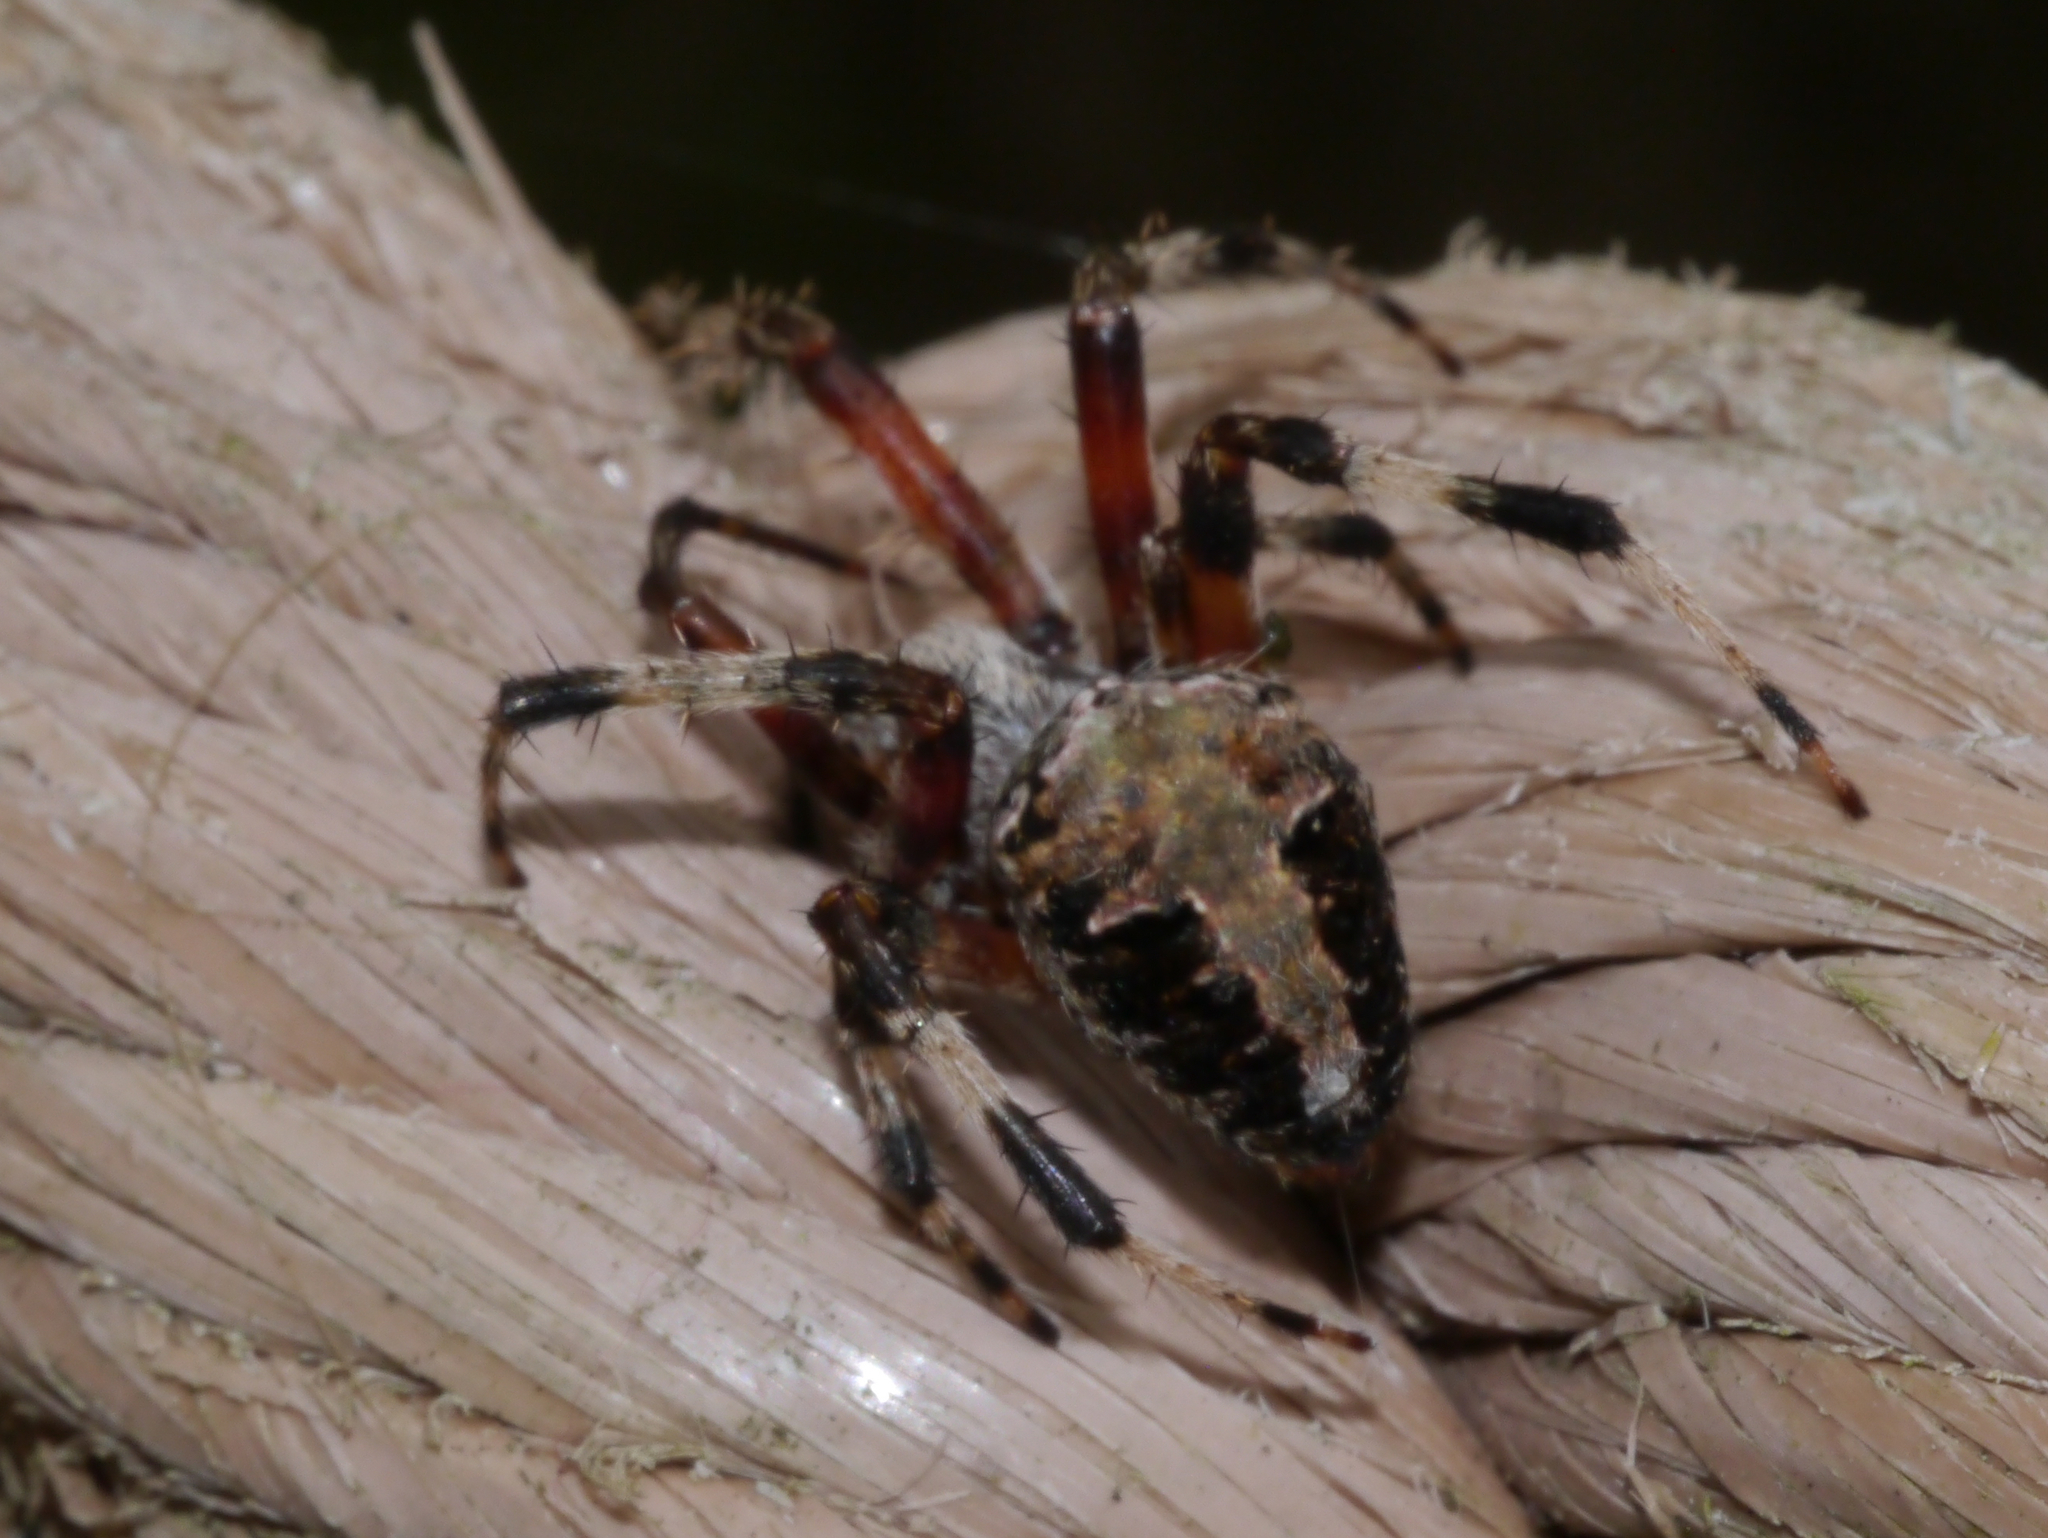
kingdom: Animalia
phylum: Arthropoda
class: Arachnida
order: Araneae
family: Araneidae
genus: Neoscona
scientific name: Neoscona domiciliorum
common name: Red-femured spotted orbweaver
